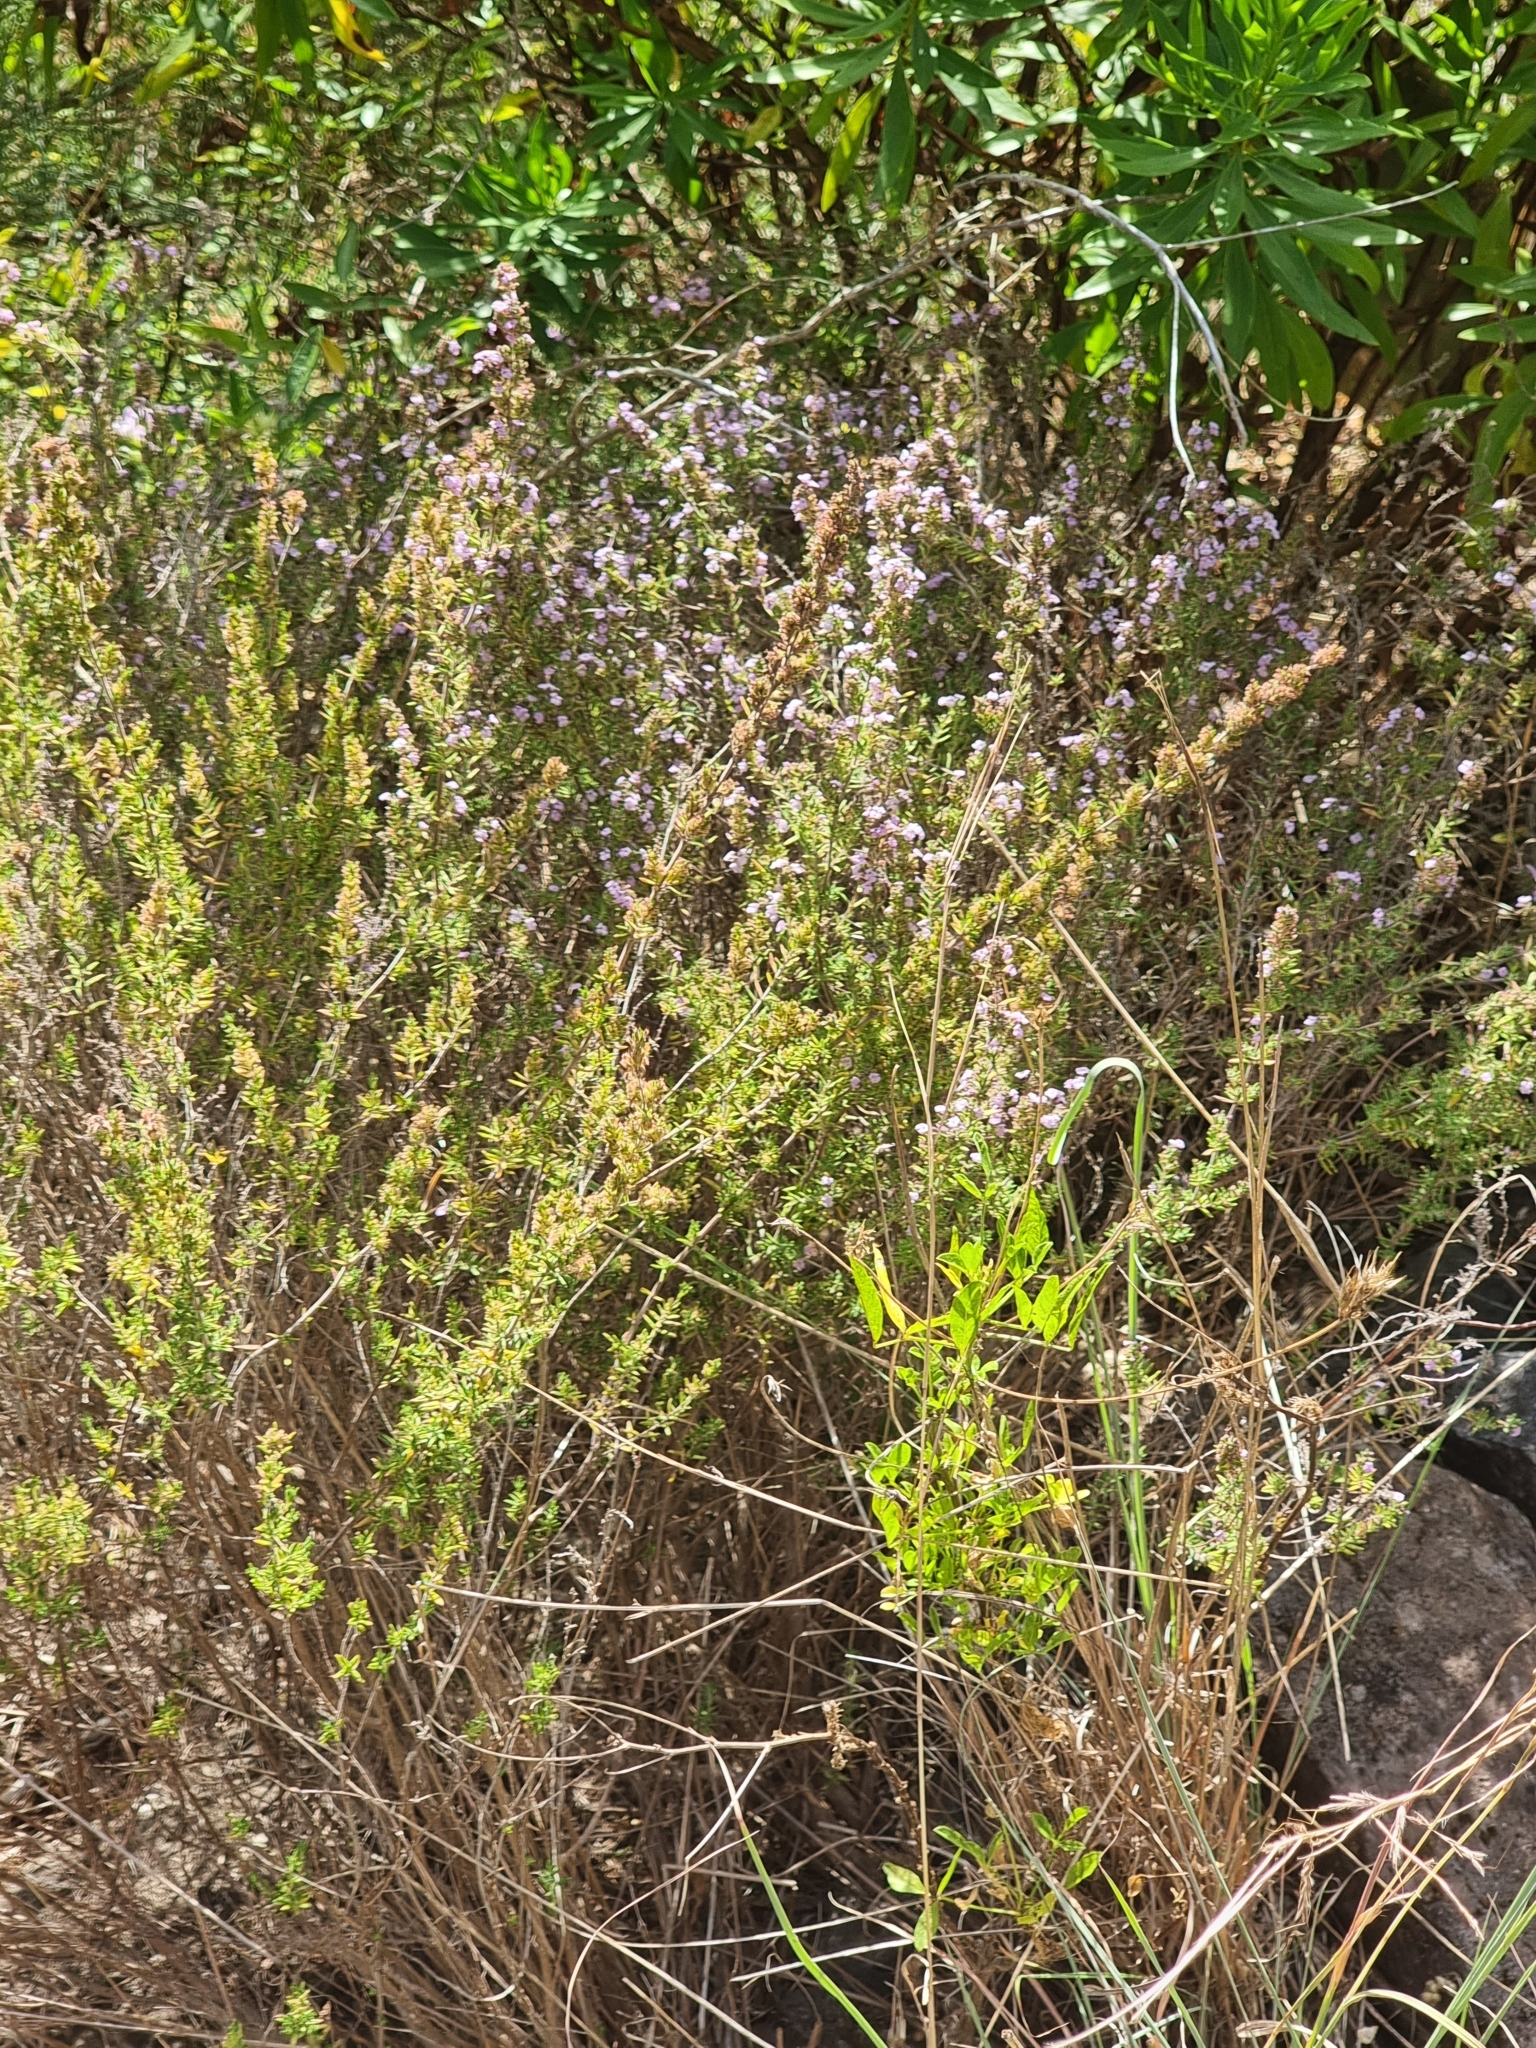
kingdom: Plantae
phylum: Tracheophyta
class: Magnoliopsida
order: Lamiales
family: Lamiaceae
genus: Micromeria
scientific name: Micromeria maderensis
